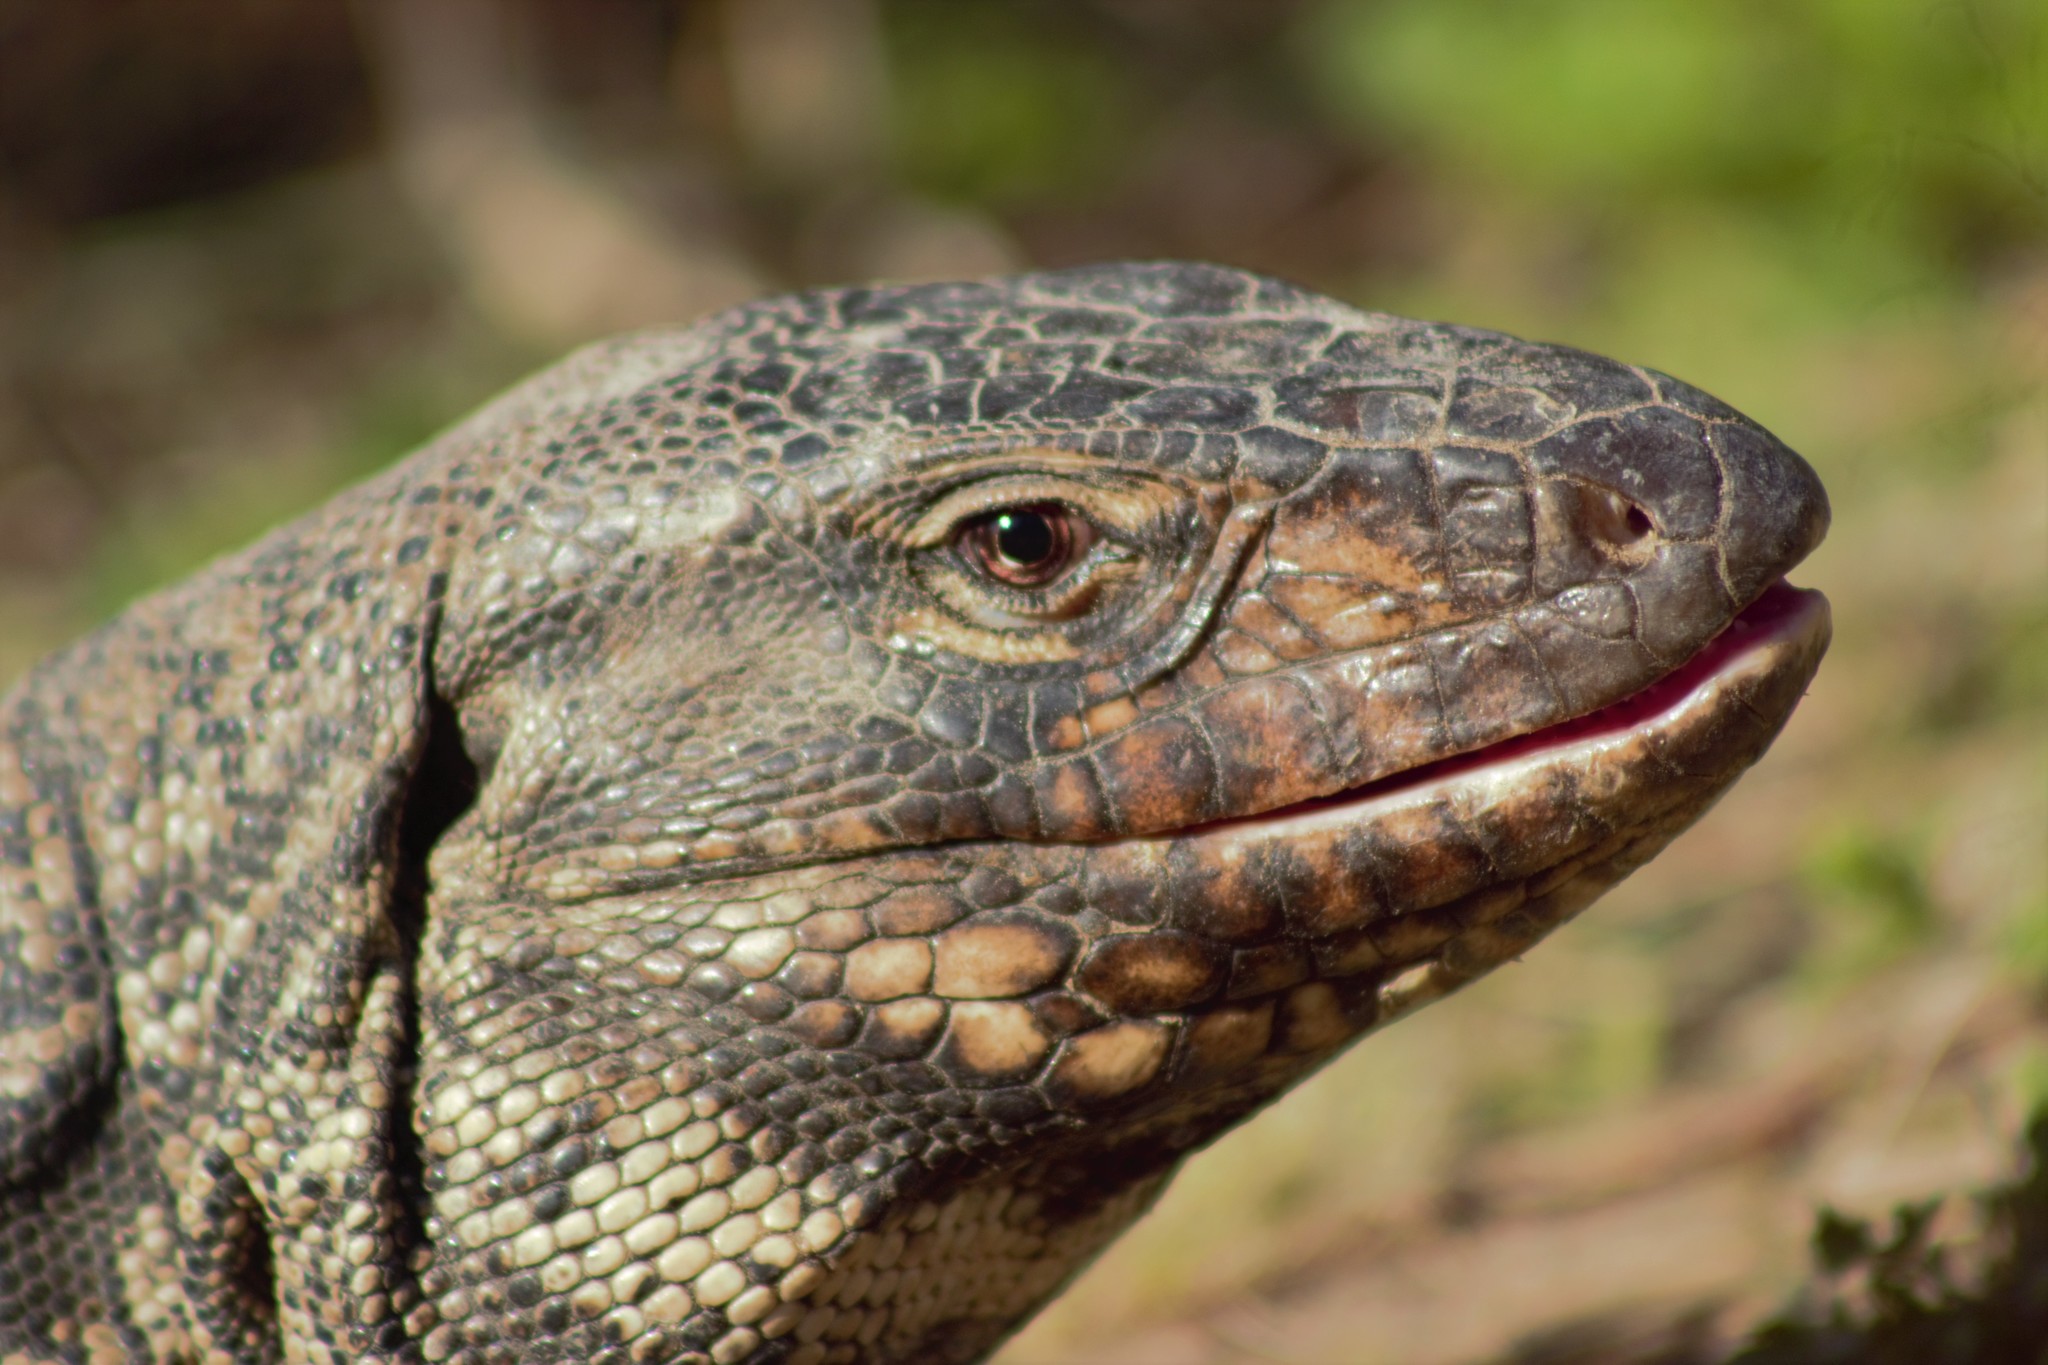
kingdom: Animalia
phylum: Chordata
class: Squamata
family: Teiidae
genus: Salvator
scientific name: Salvator merianae
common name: Argentine black and white tegu
